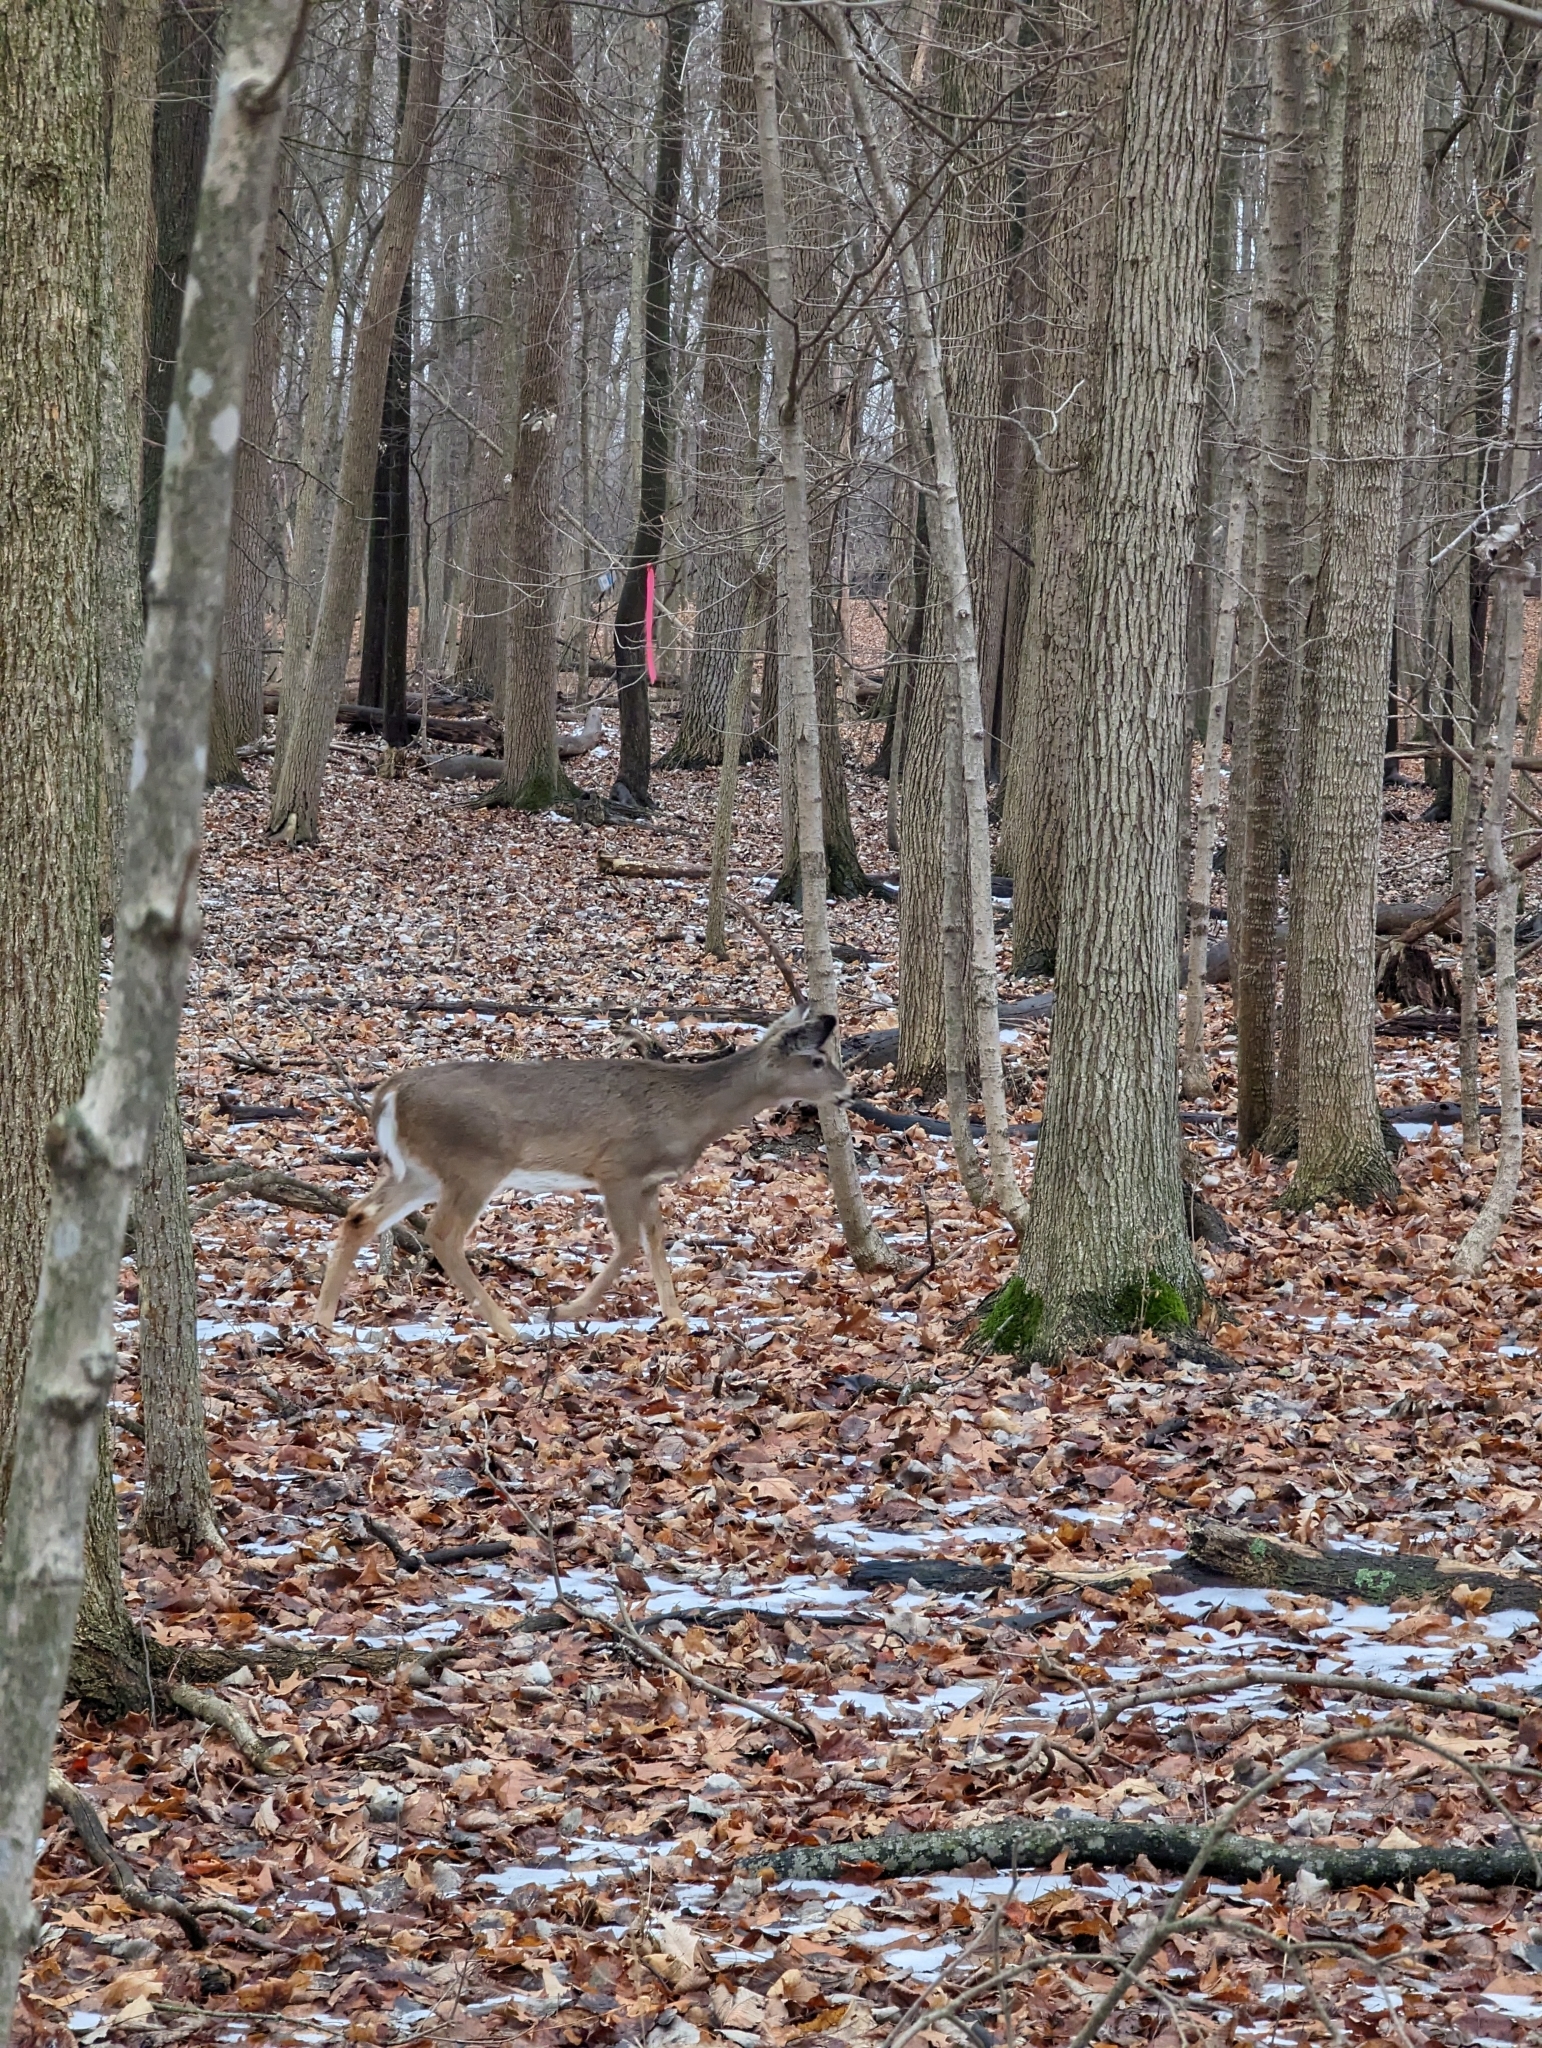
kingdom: Animalia
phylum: Chordata
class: Mammalia
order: Artiodactyla
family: Cervidae
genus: Odocoileus
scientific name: Odocoileus virginianus
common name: White-tailed deer
